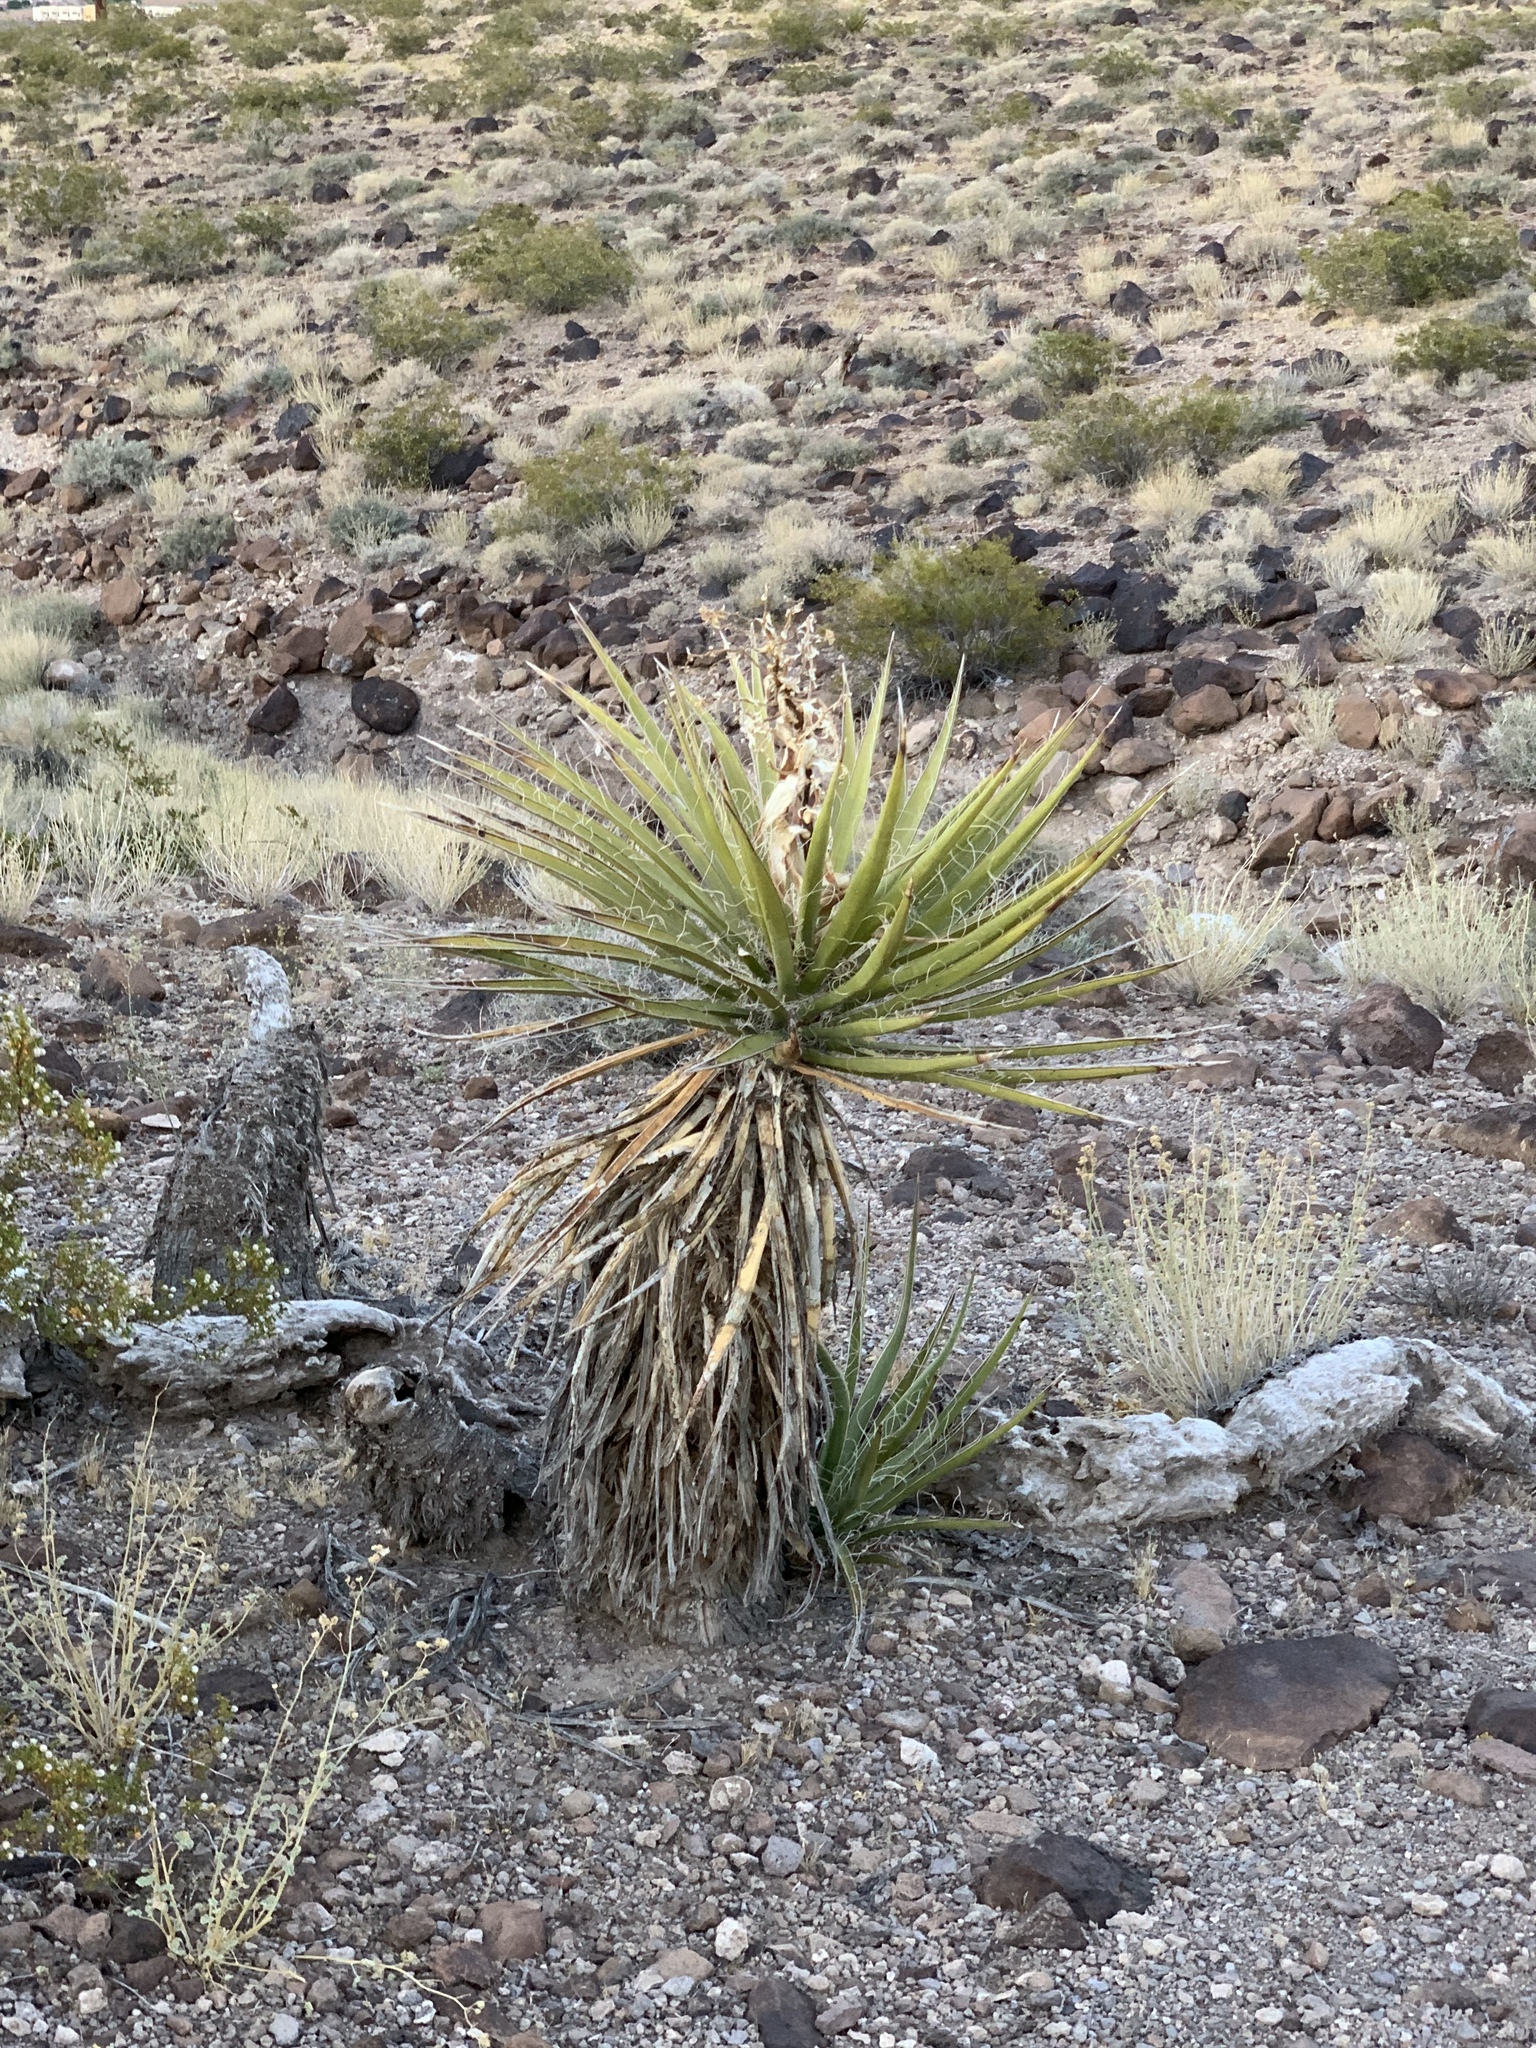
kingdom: Plantae
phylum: Tracheophyta
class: Liliopsida
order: Asparagales
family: Asparagaceae
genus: Yucca
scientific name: Yucca schidigera
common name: Mojave yucca
